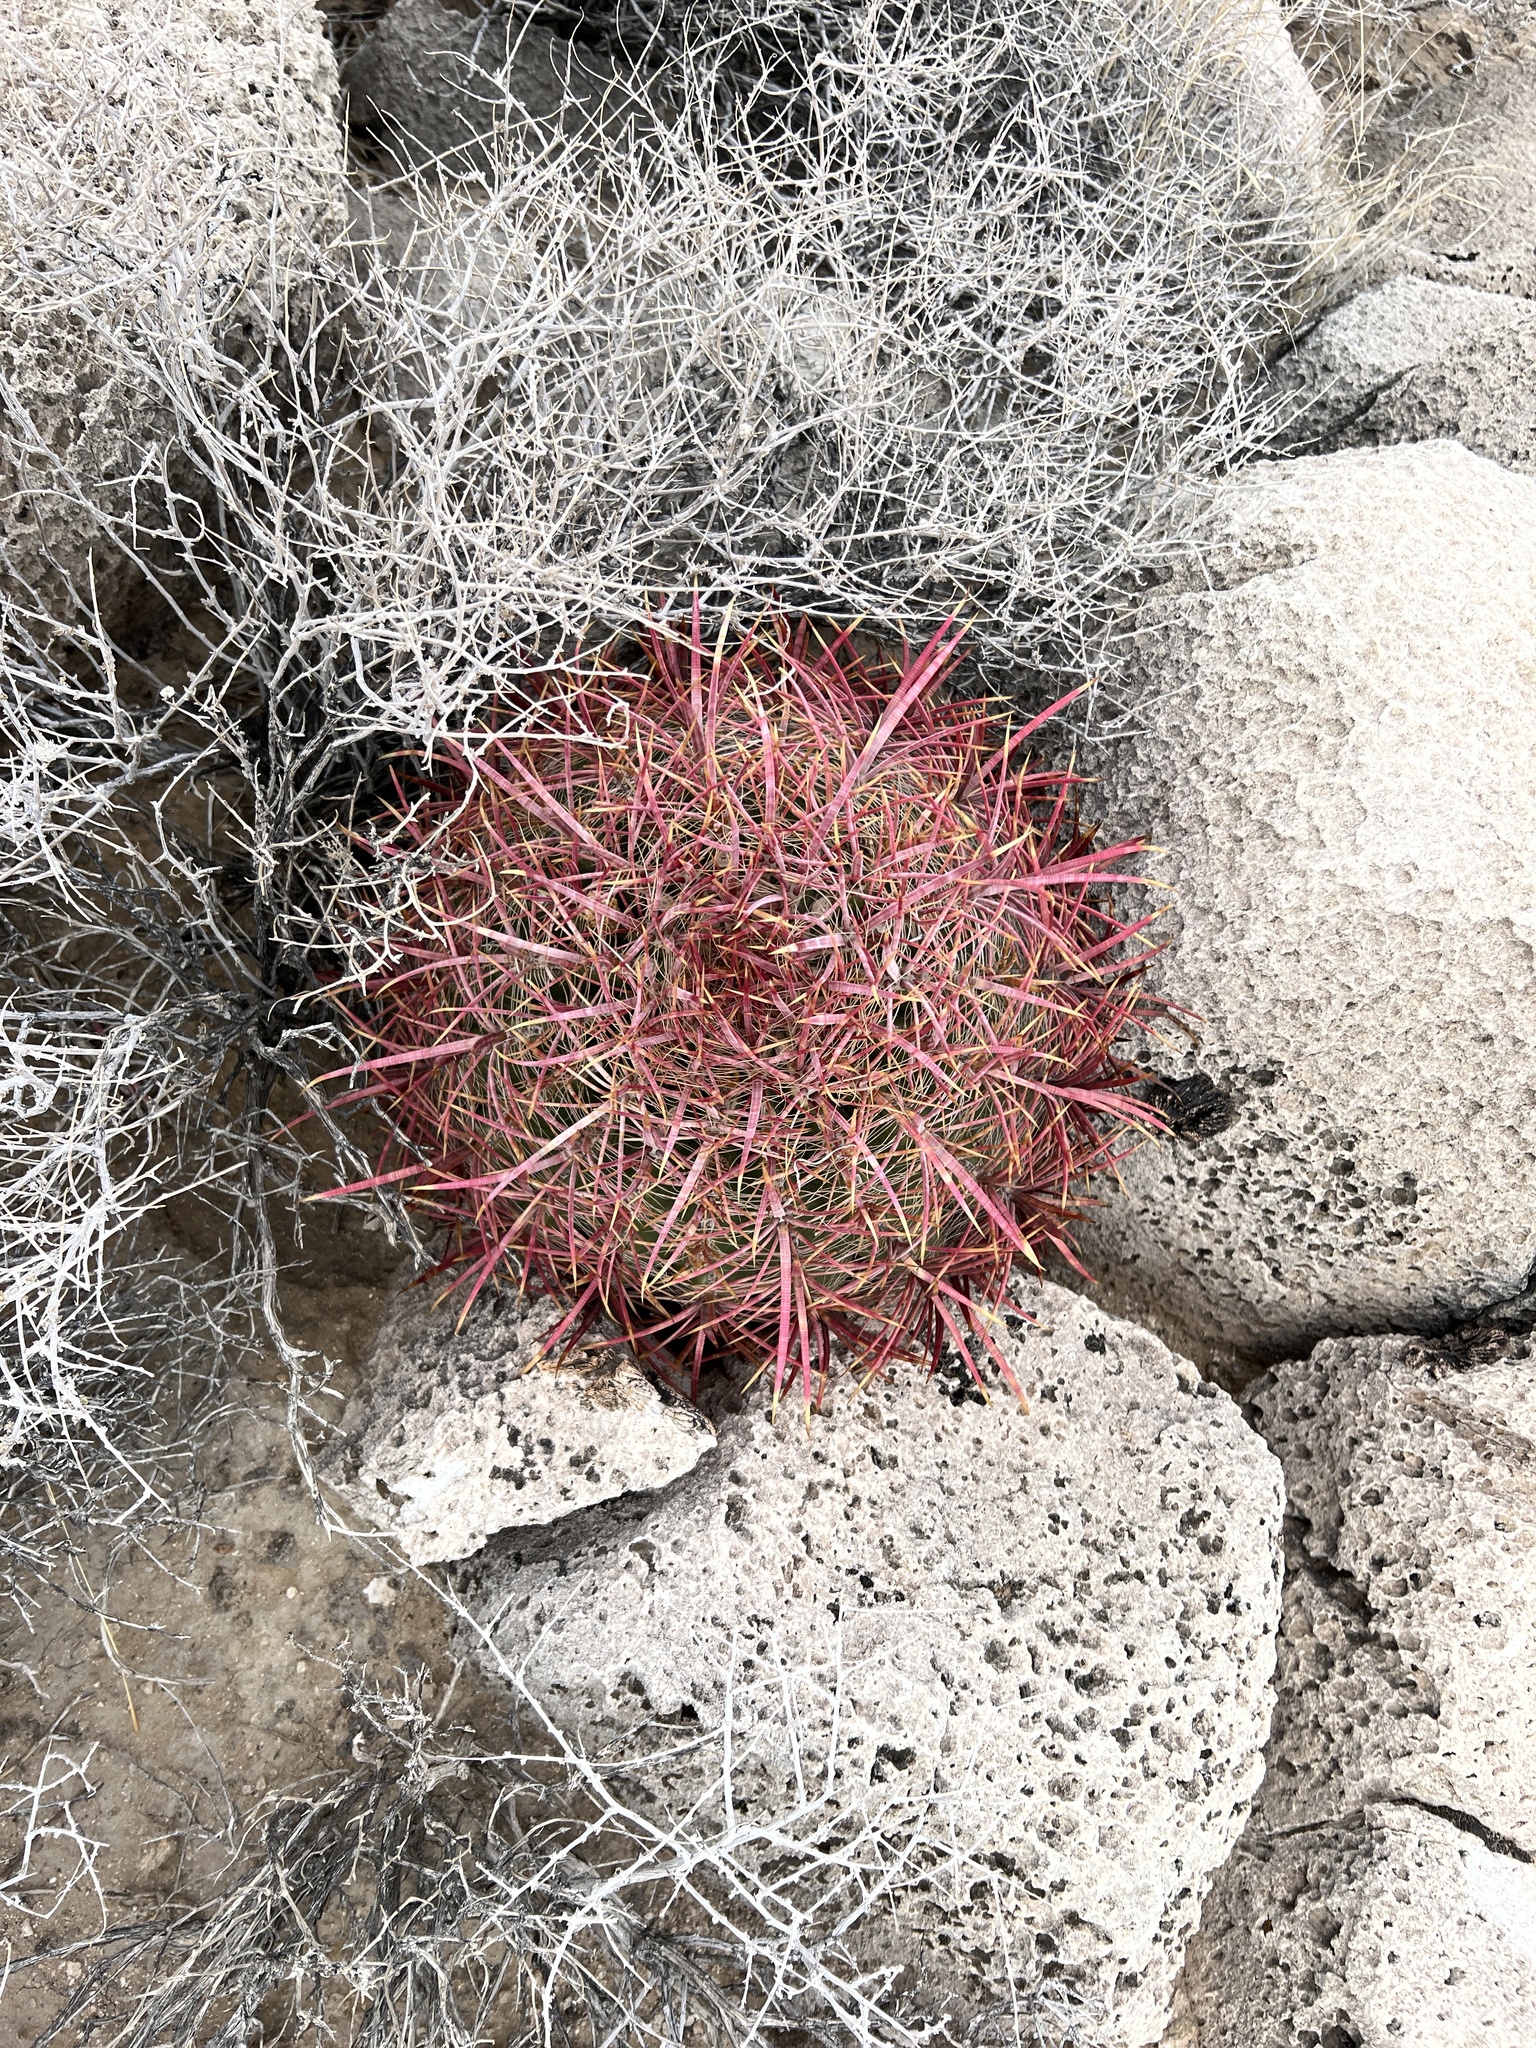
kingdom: Plantae
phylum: Tracheophyta
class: Magnoliopsida
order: Caryophyllales
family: Cactaceae
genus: Ferocactus
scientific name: Ferocactus cylindraceus
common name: California barrel cactus
